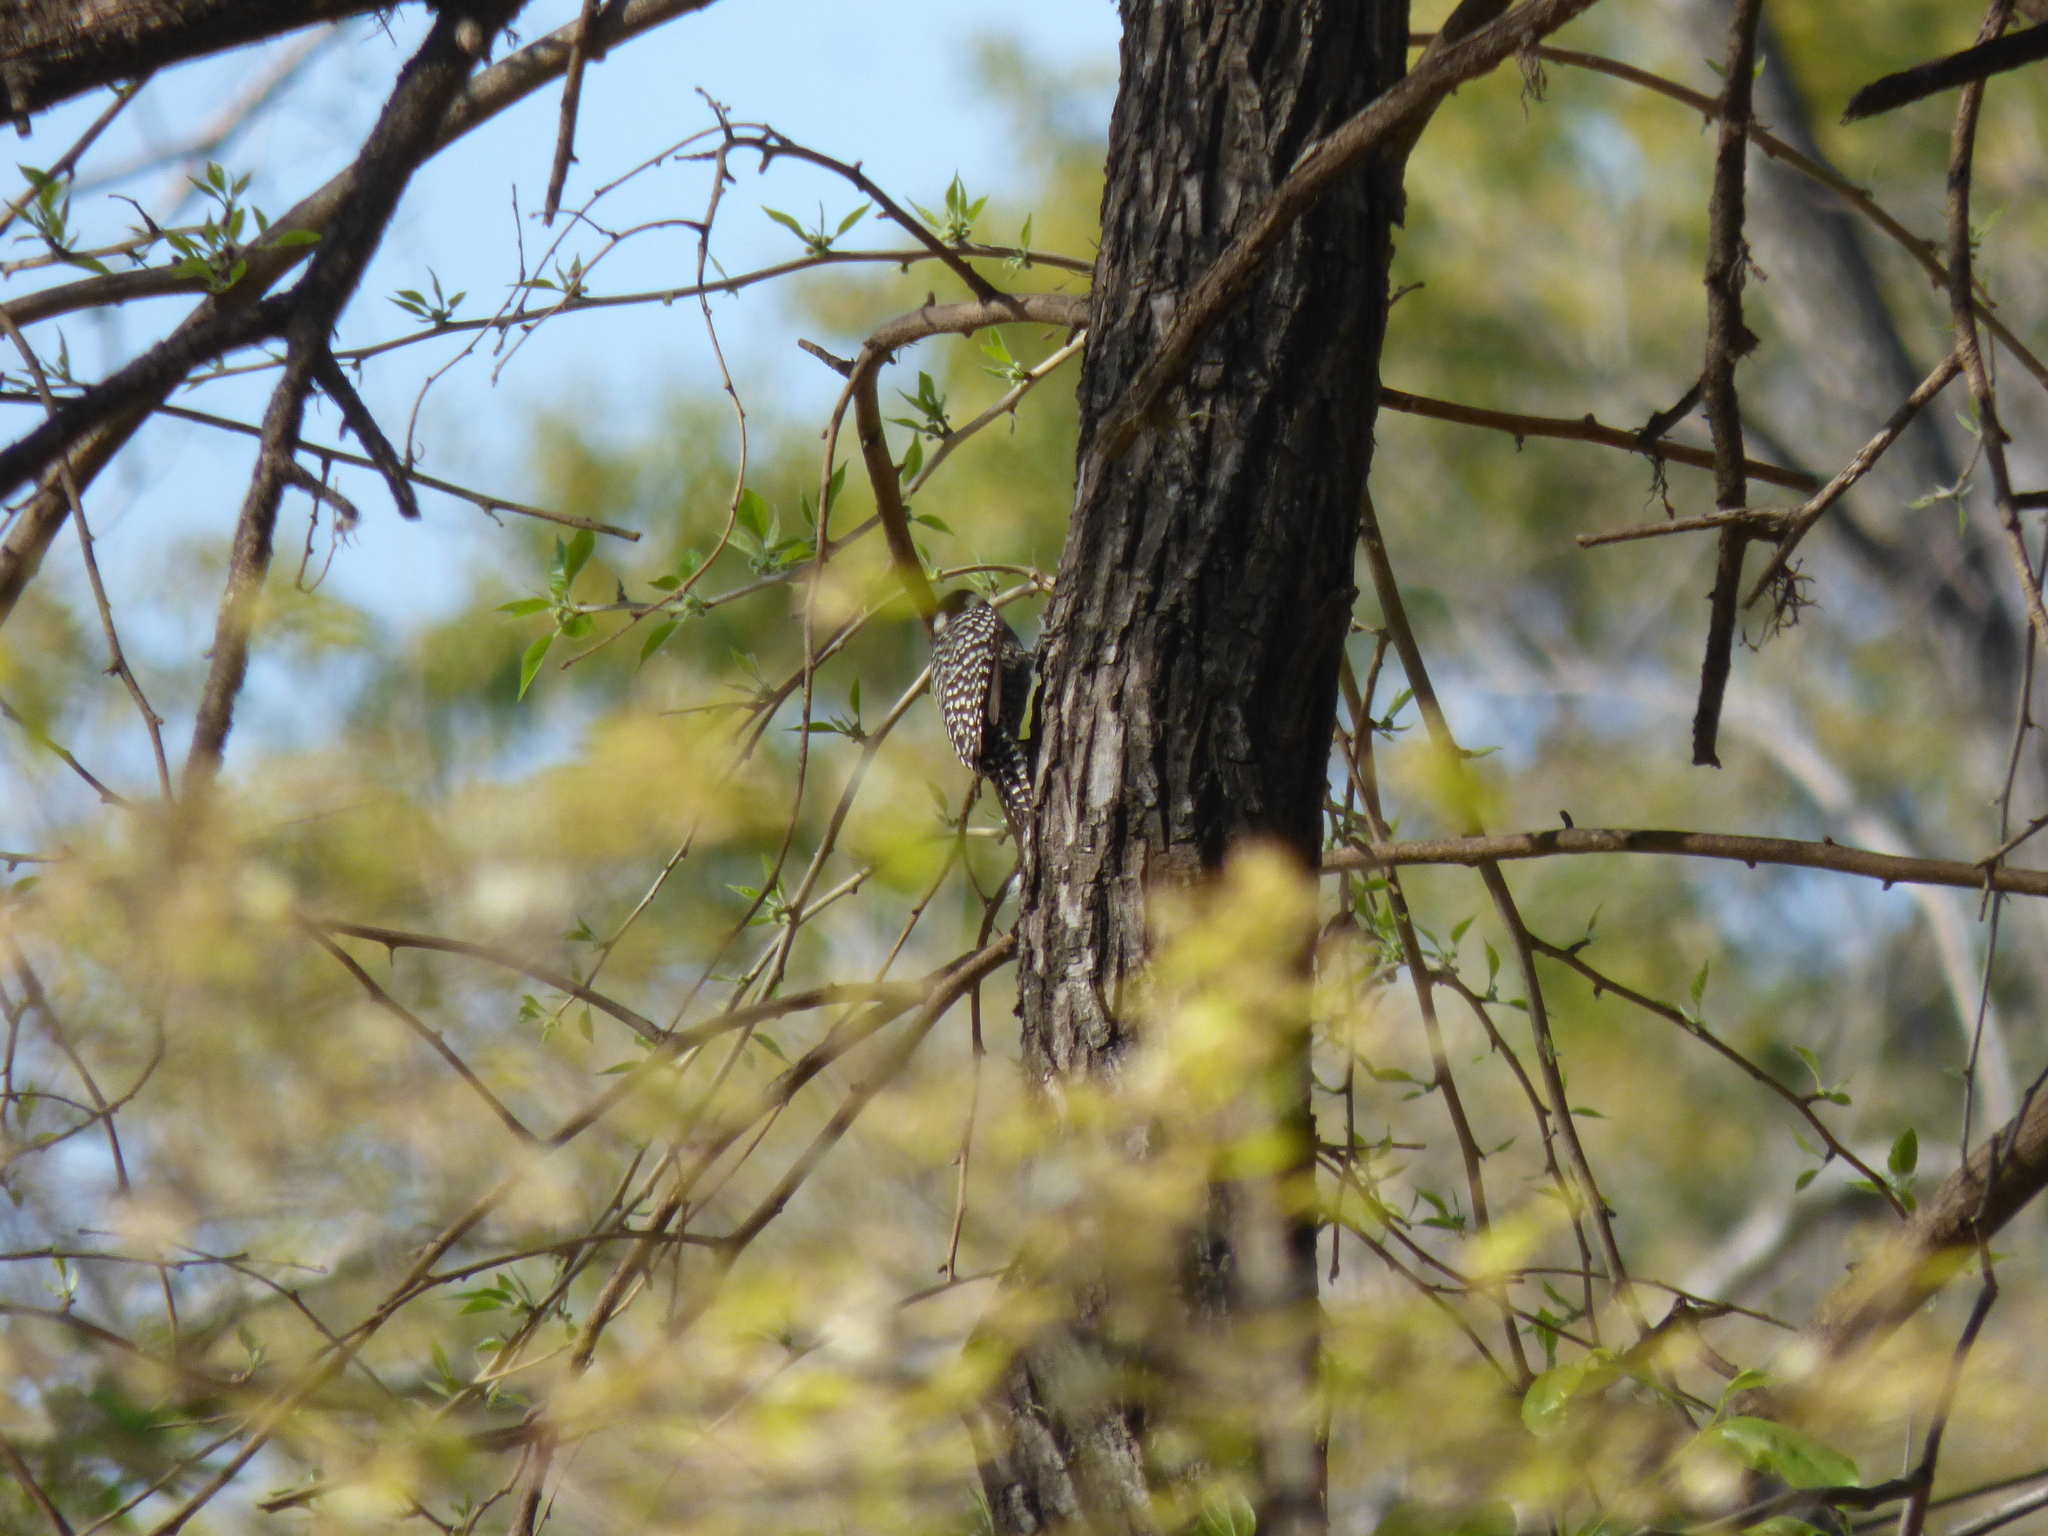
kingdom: Animalia
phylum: Chordata
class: Aves
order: Piciformes
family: Picidae
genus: Veniliornis
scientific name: Veniliornis mixtus
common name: Checkered woodpecker
